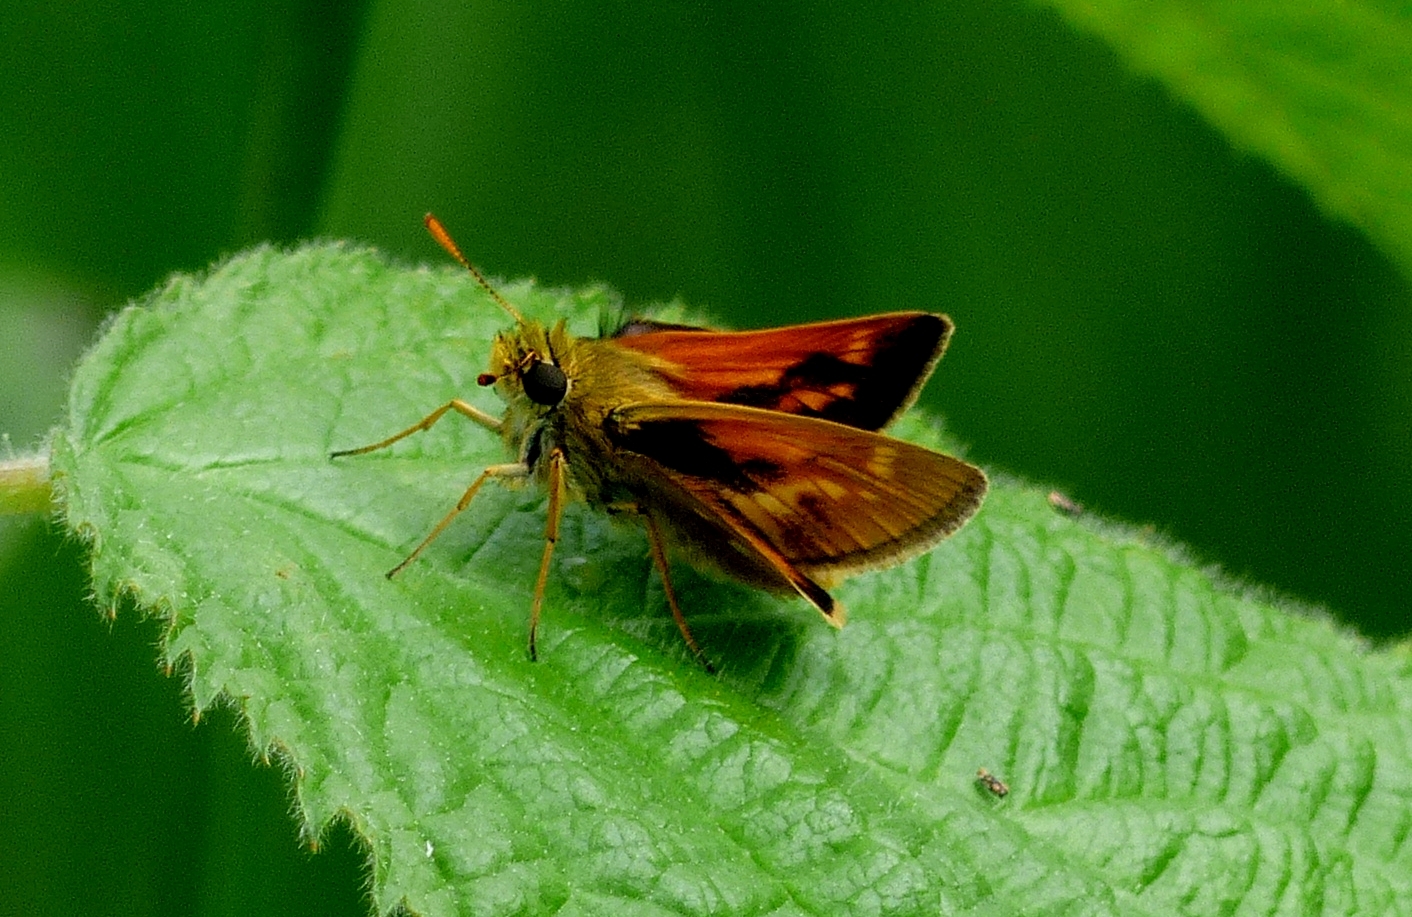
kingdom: Animalia
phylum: Arthropoda
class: Insecta
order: Lepidoptera
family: Hesperiidae
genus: Polites
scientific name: Polites mystic
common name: Long dash
